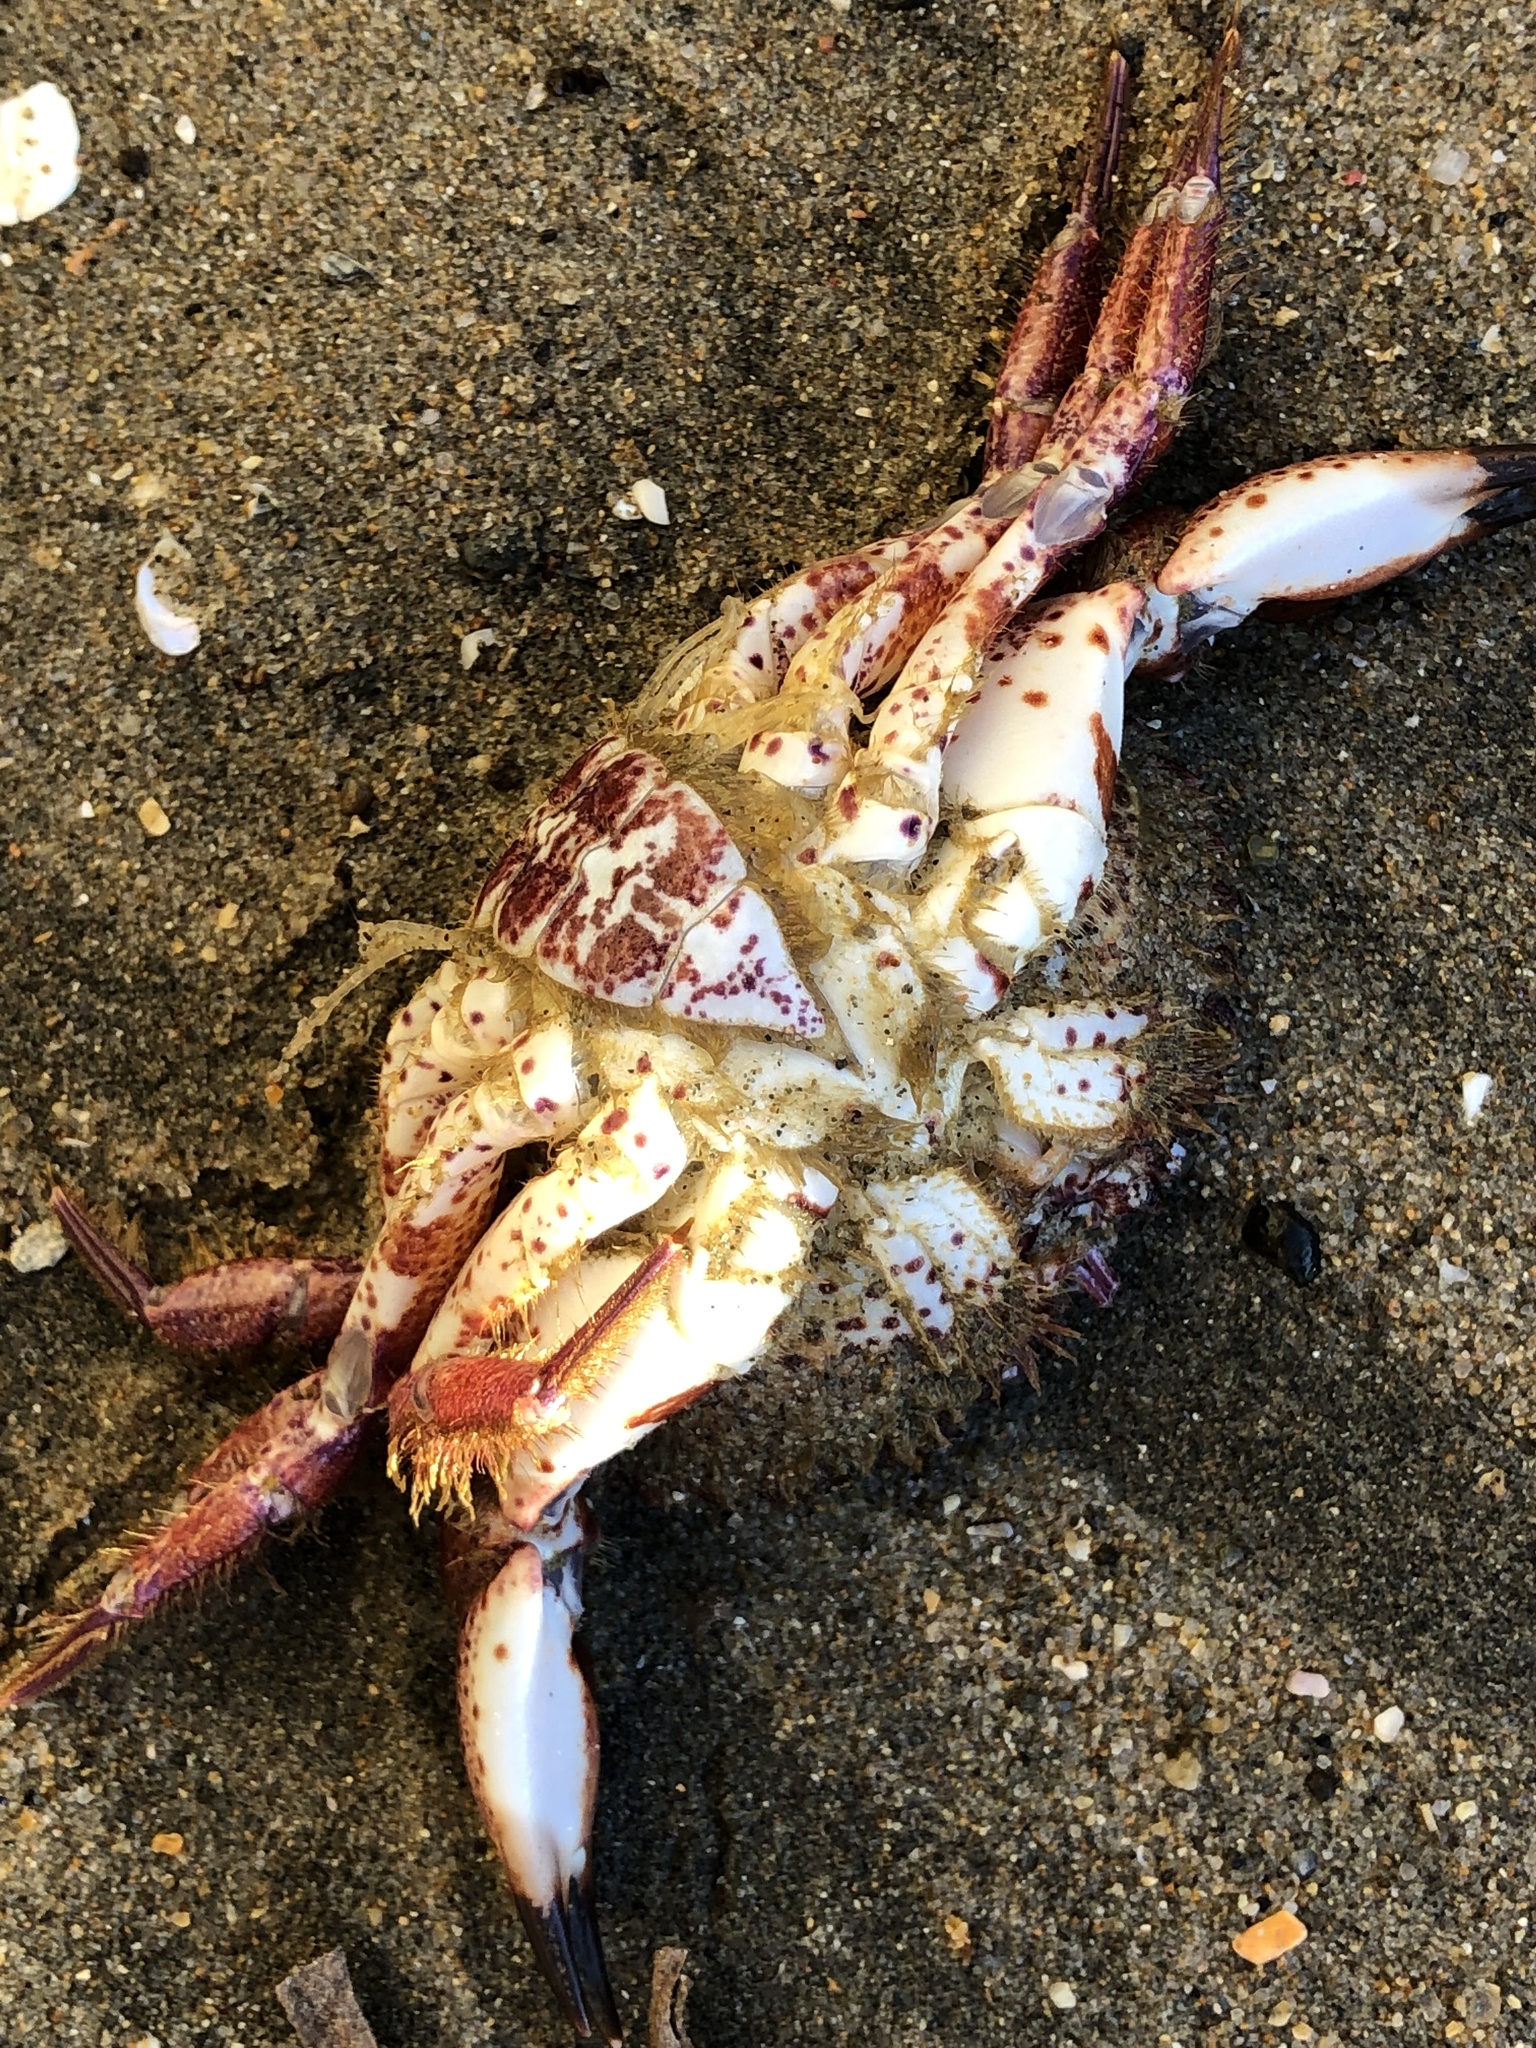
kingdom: Animalia
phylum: Arthropoda
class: Malacostraca
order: Decapoda
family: Cancridae
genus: Romaleon
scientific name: Romaleon antennarium
